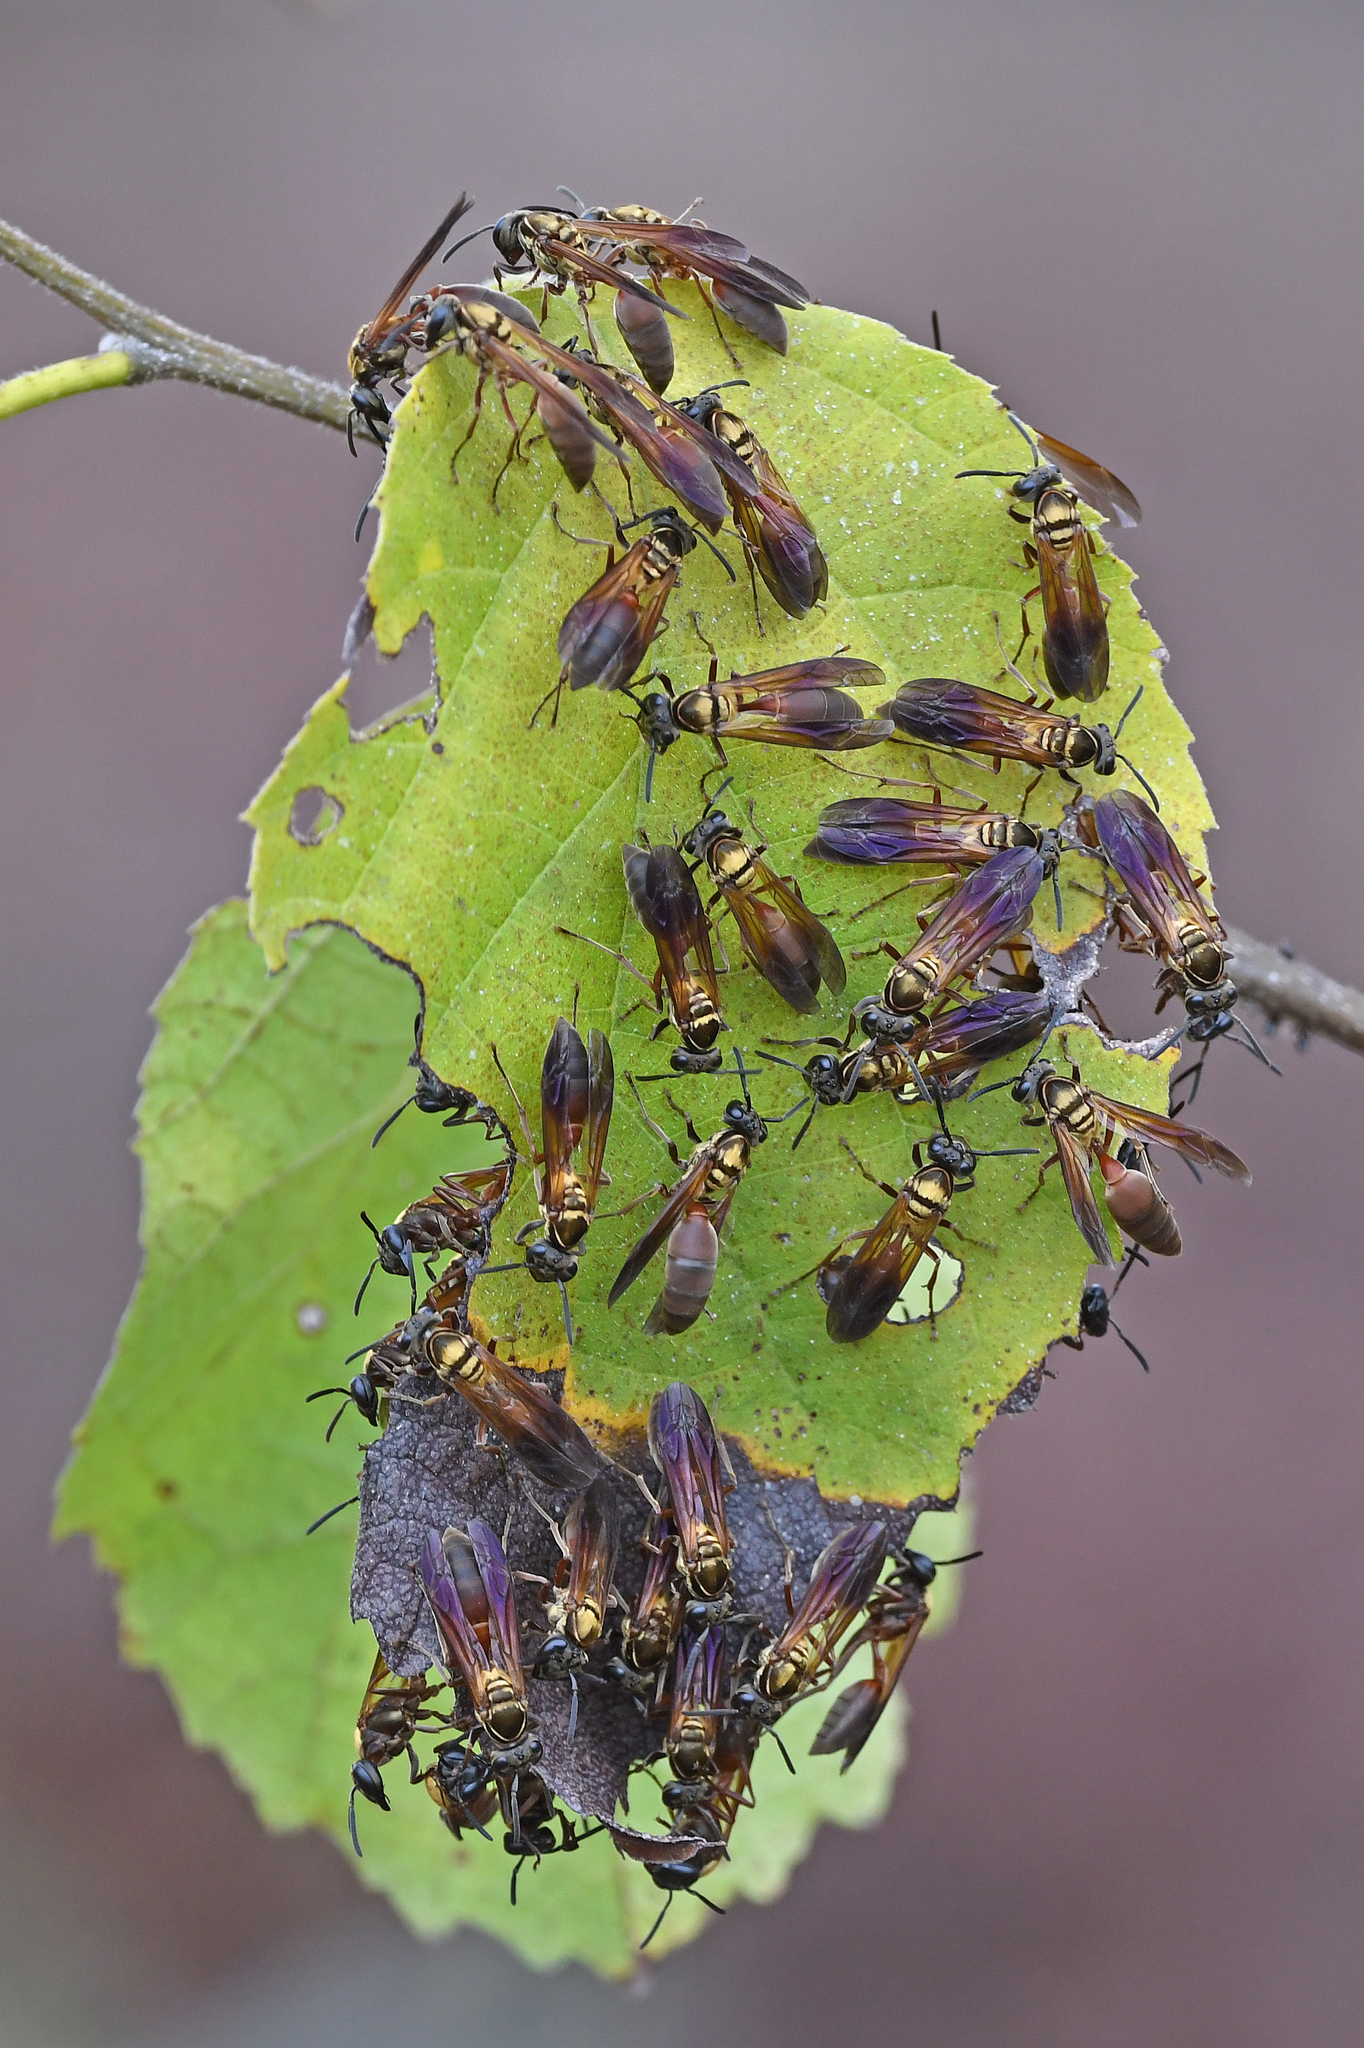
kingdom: Animalia
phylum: Arthropoda
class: Insecta
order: Hymenoptera
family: Eumenidae
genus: Polybia
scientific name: Polybia chrysothorax
